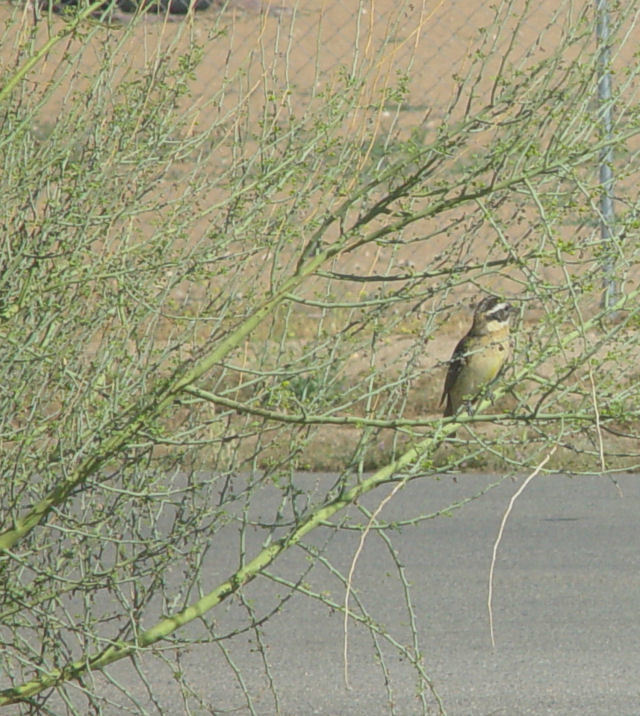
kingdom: Animalia
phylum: Chordata
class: Aves
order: Passeriformes
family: Cardinalidae
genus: Pheucticus
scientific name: Pheucticus melanocephalus
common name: Black-headed grosbeak
